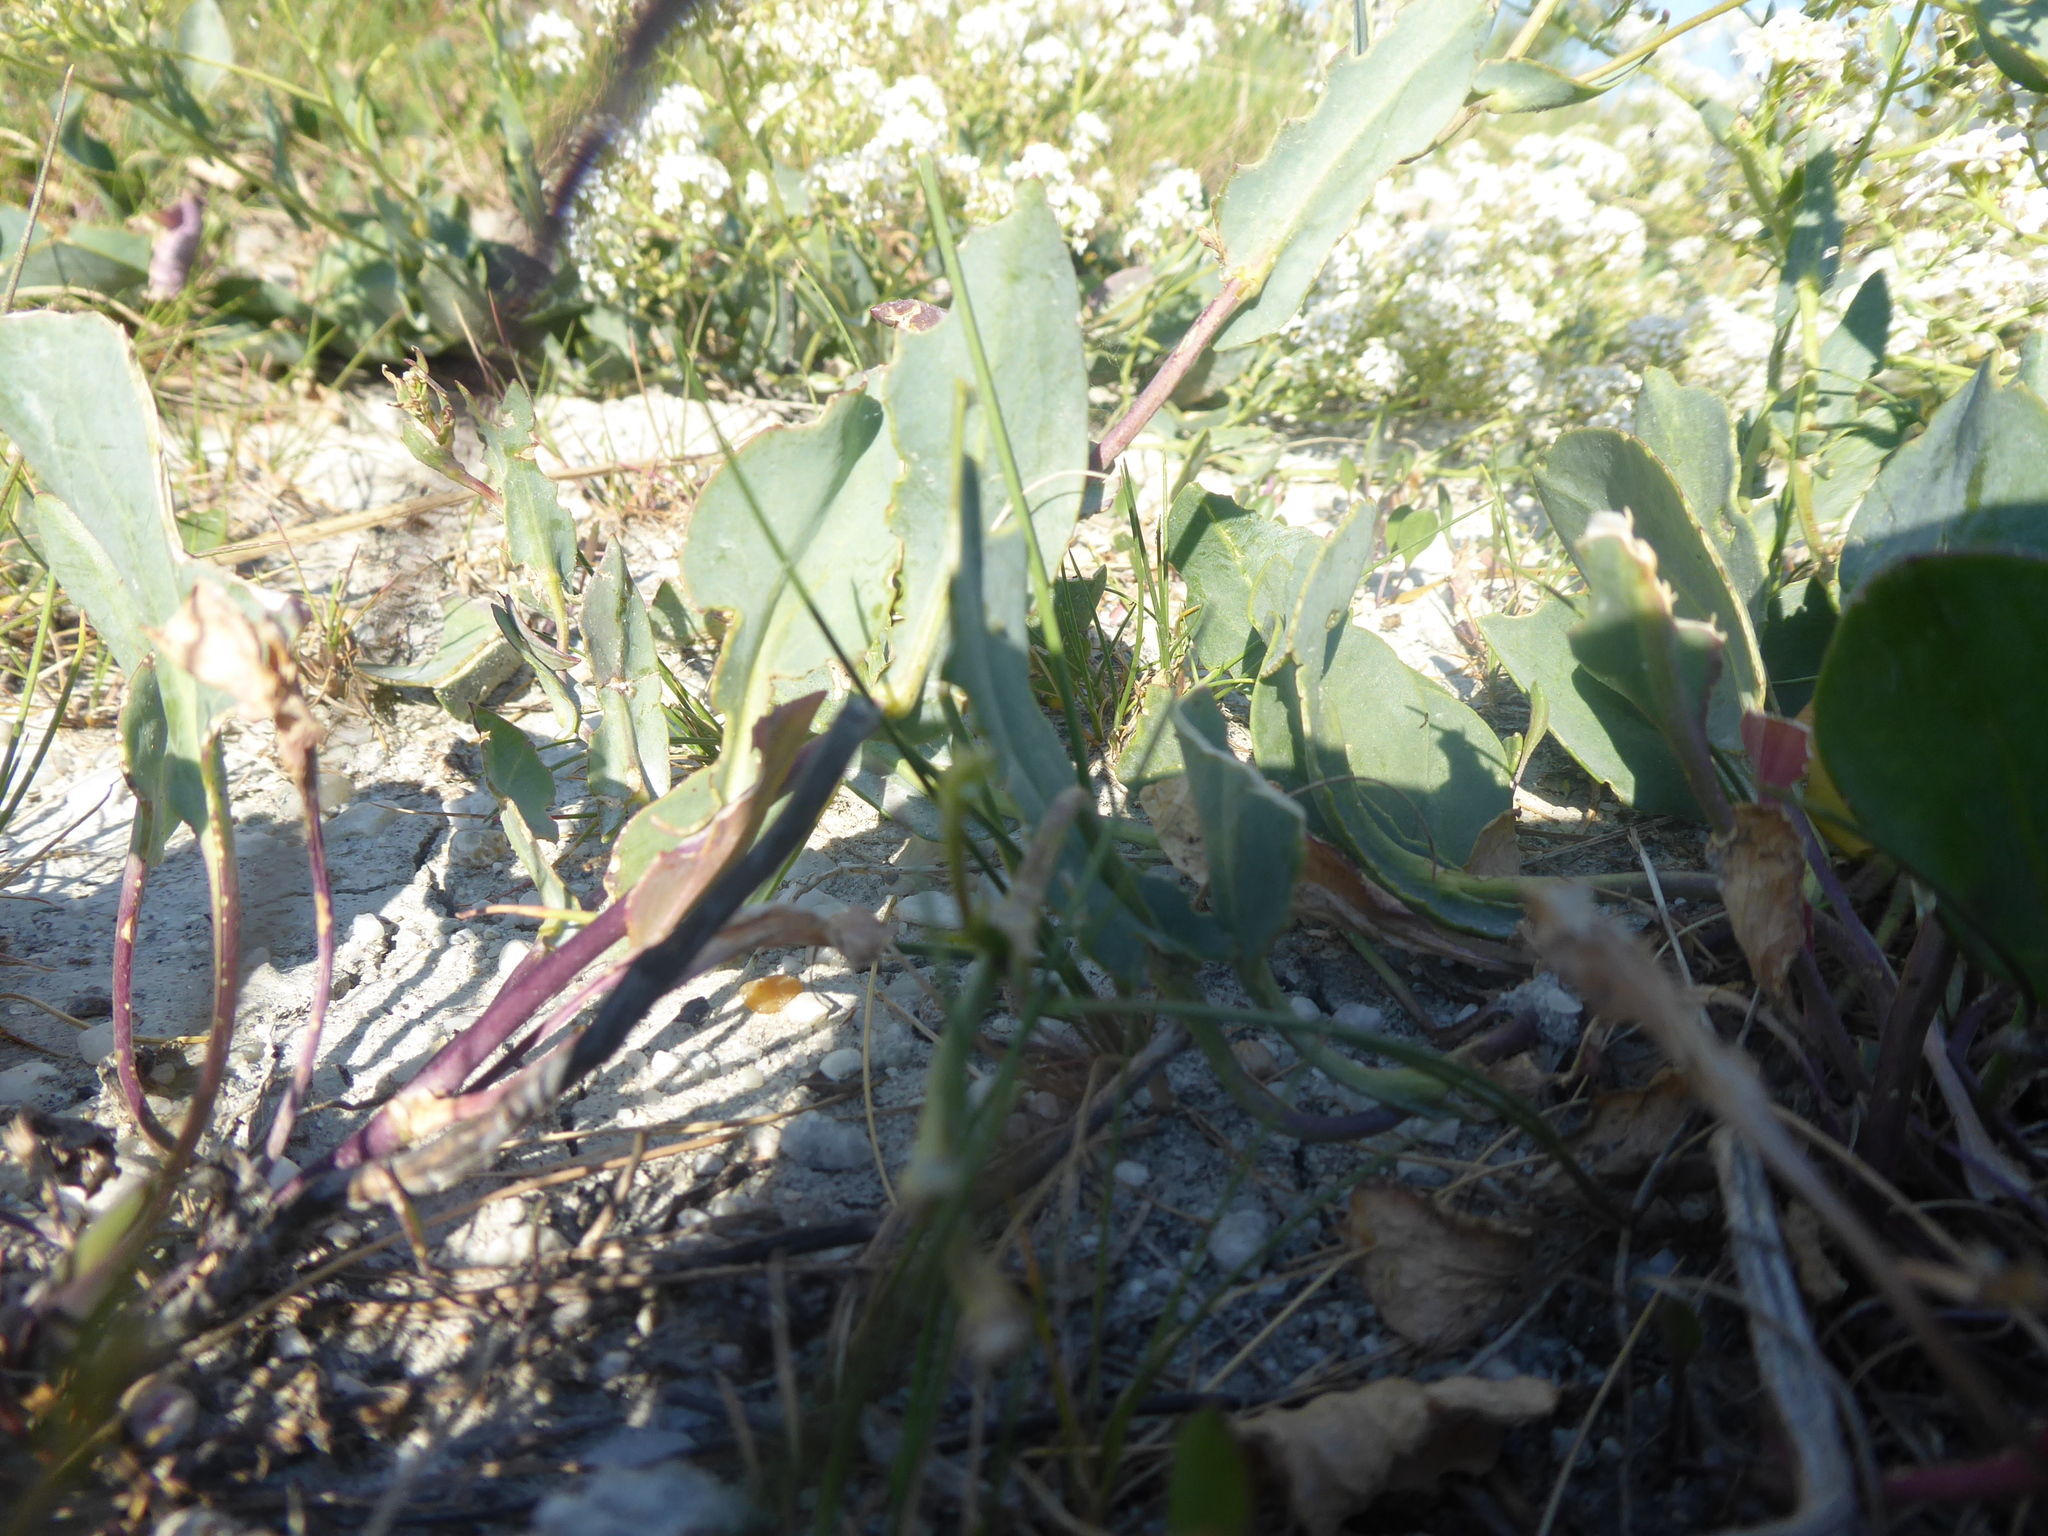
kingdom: Plantae
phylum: Tracheophyta
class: Magnoliopsida
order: Brassicales
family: Brassicaceae
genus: Lepidium
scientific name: Lepidium cartilagineum
